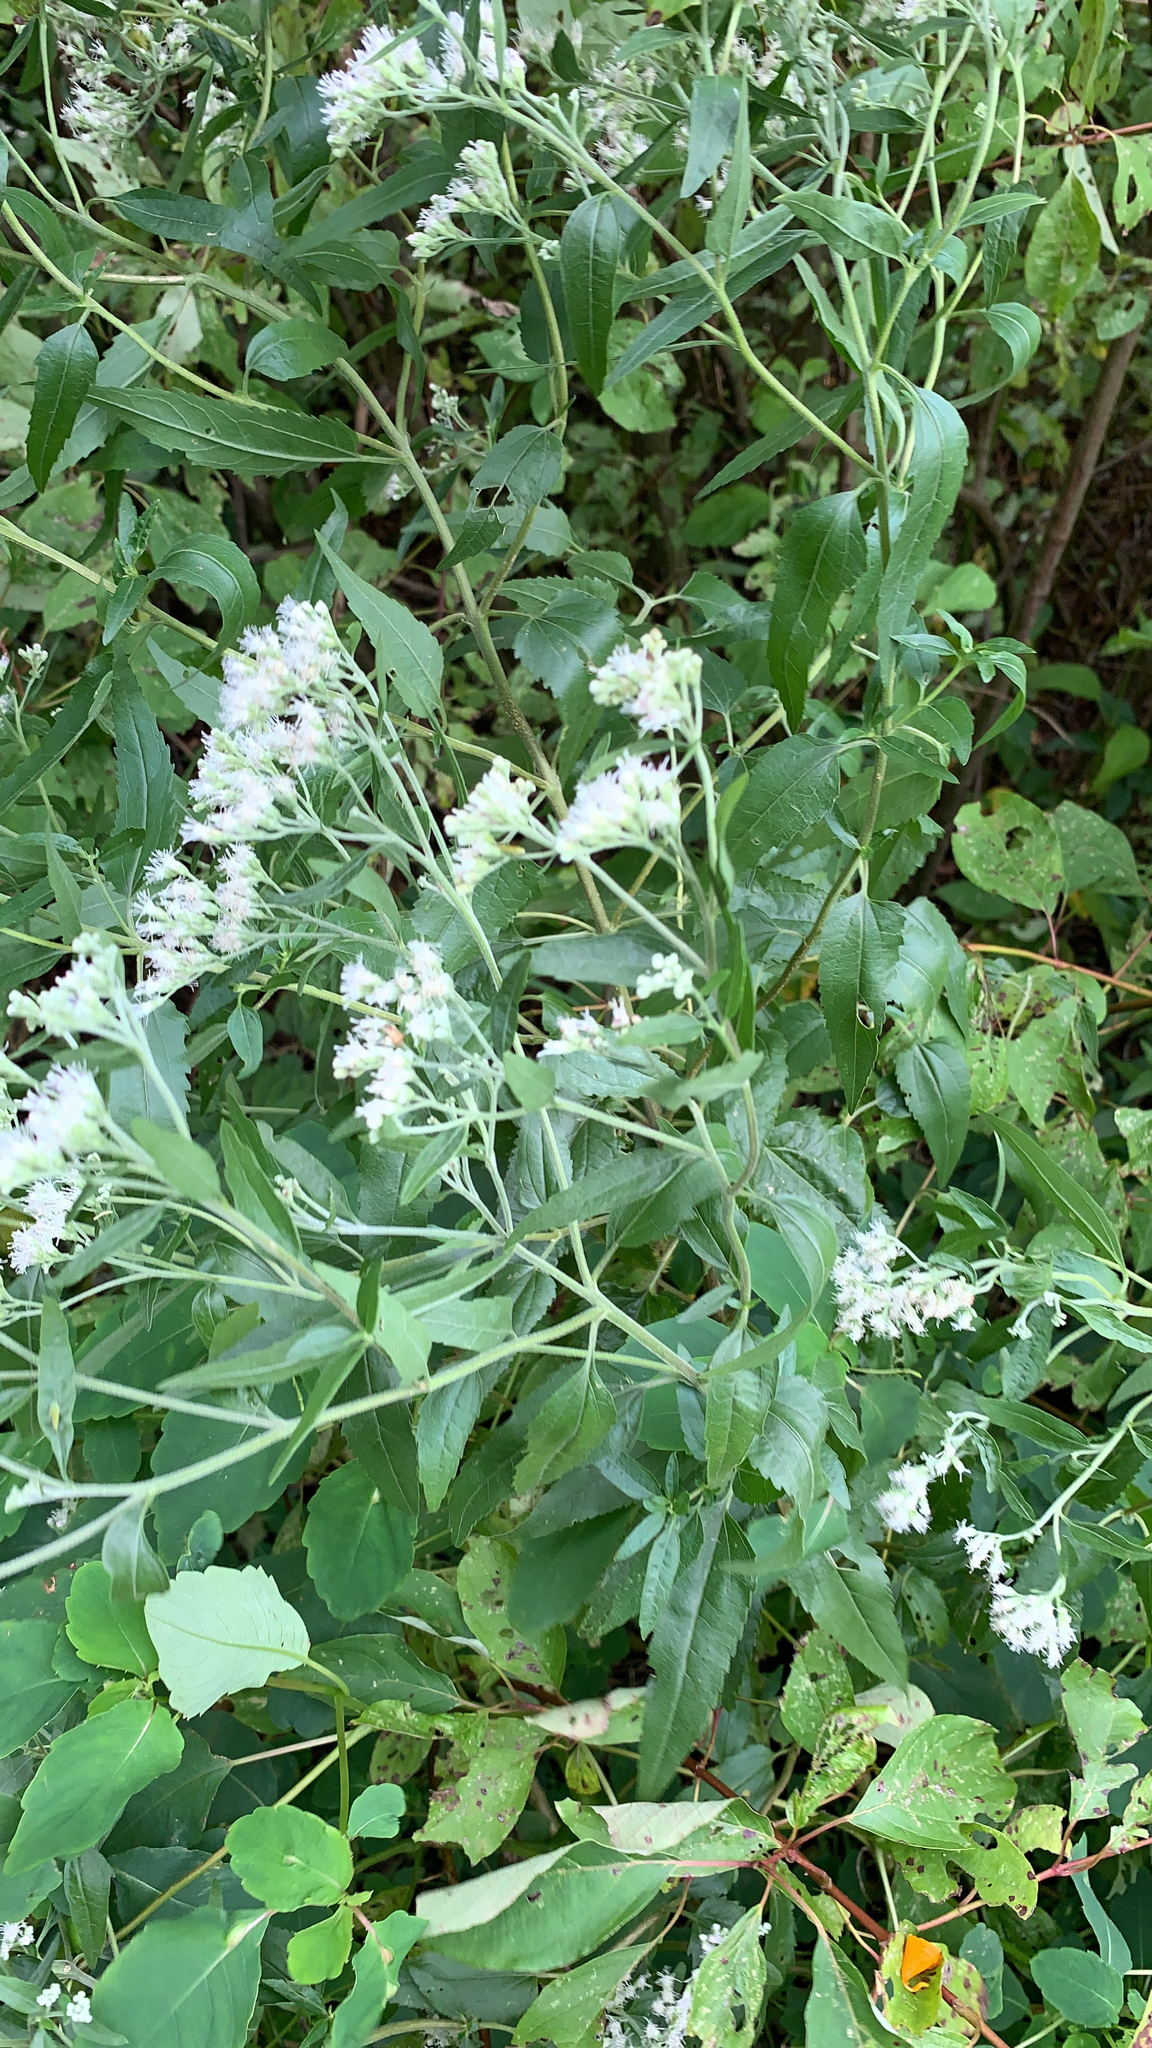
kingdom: Plantae
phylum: Tracheophyta
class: Magnoliopsida
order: Asterales
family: Asteraceae
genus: Eupatorium
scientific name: Eupatorium serotinum
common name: Late boneset
